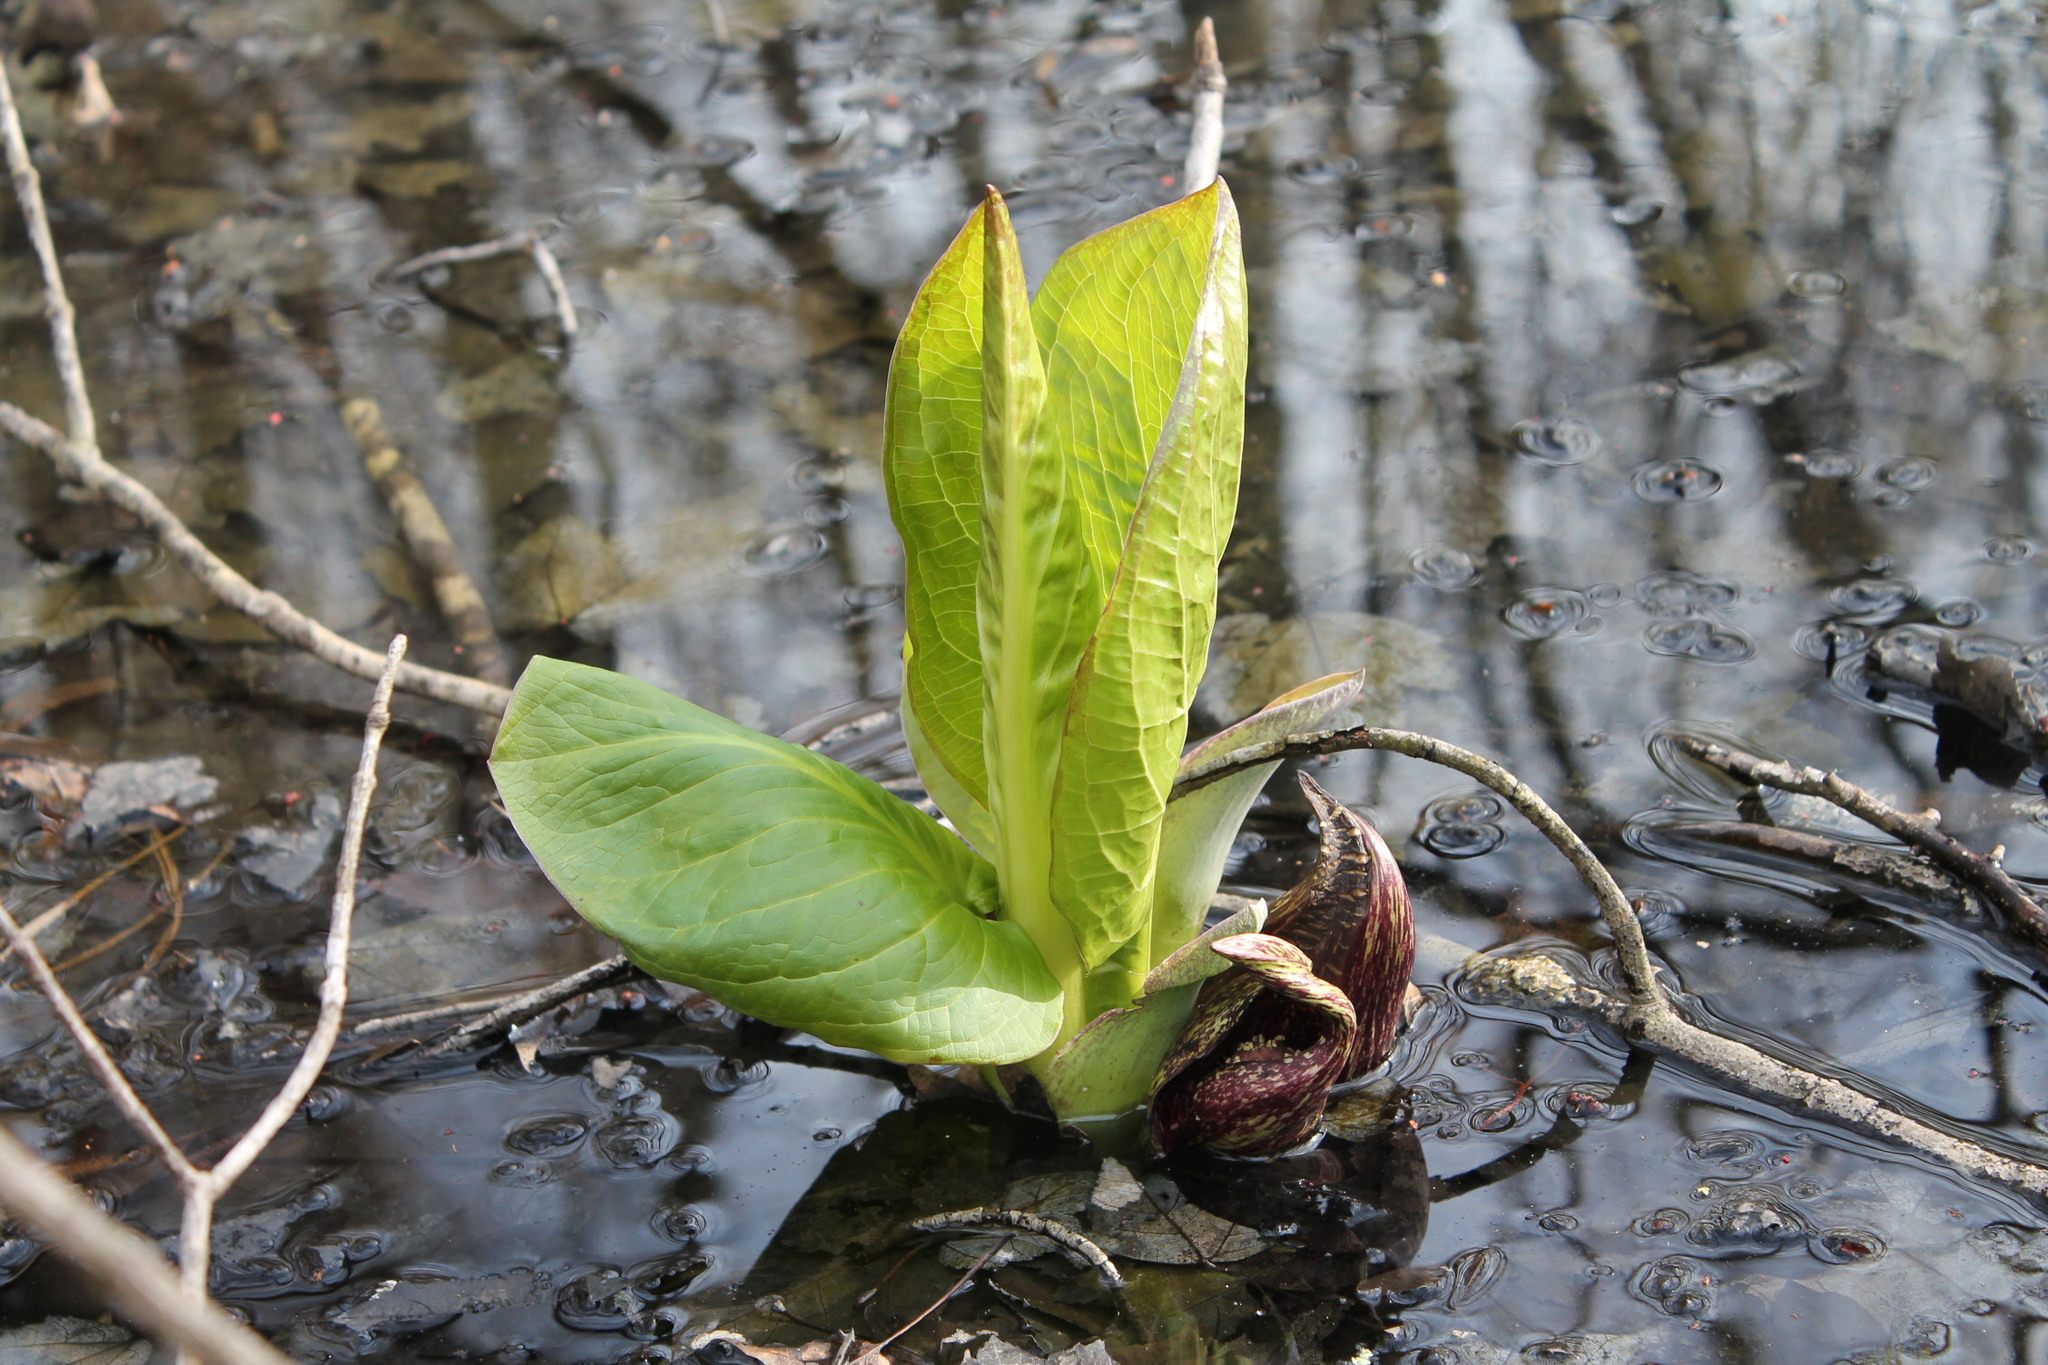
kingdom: Plantae
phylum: Tracheophyta
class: Liliopsida
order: Alismatales
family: Araceae
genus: Symplocarpus
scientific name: Symplocarpus foetidus
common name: Eastern skunk cabbage
